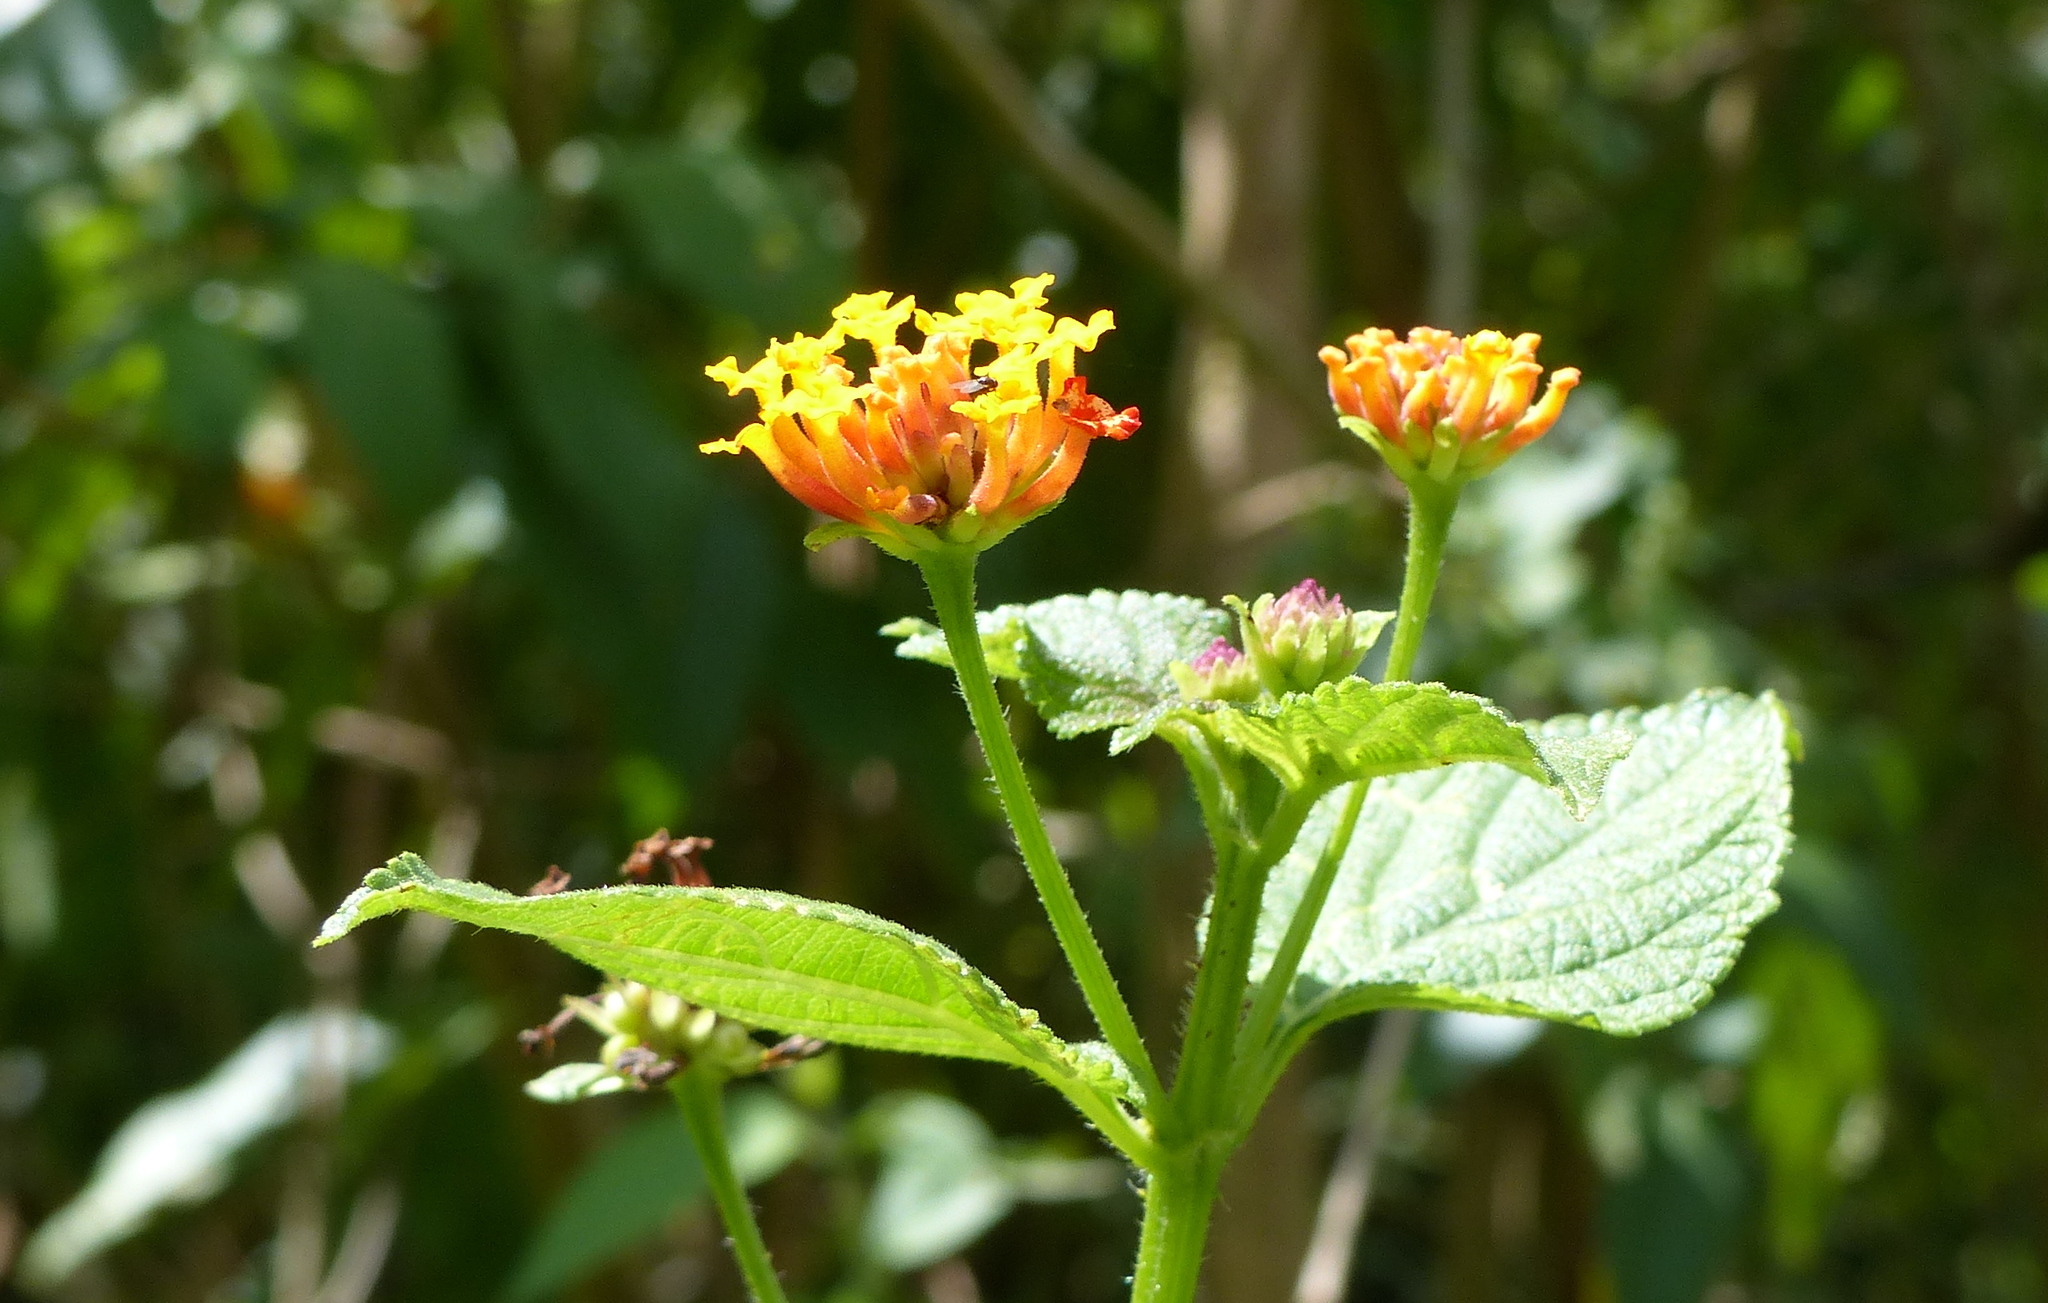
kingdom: Plantae
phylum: Tracheophyta
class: Magnoliopsida
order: Lamiales
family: Verbenaceae
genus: Lantana
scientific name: Lantana camara
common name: Lantana
